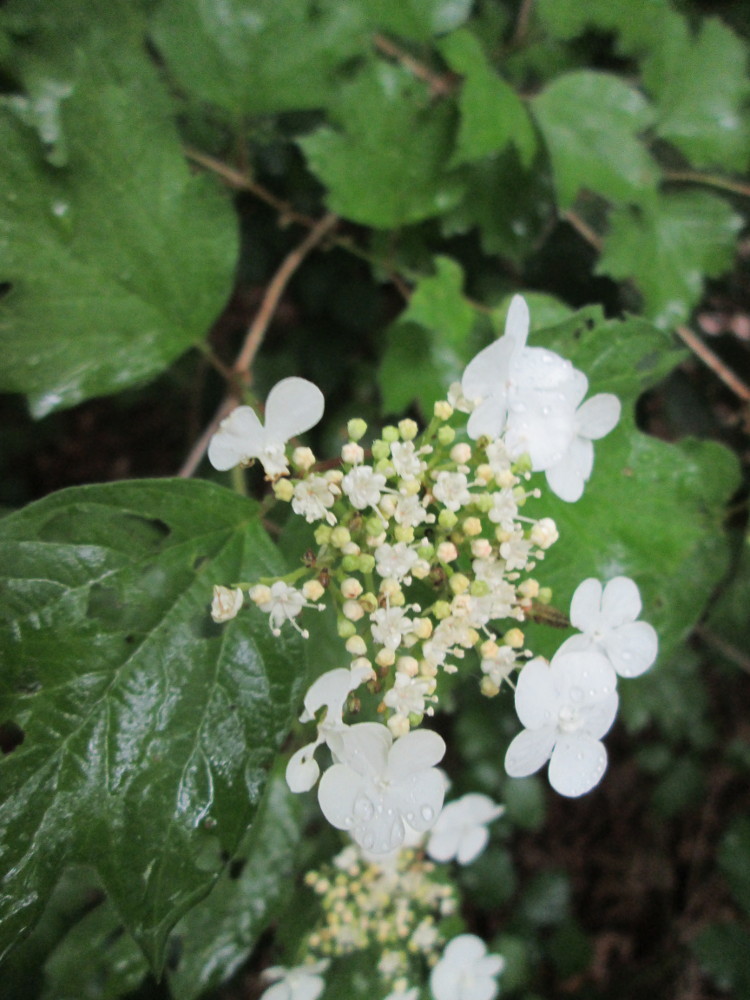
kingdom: Plantae
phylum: Tracheophyta
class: Magnoliopsida
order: Dipsacales
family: Viburnaceae
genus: Viburnum
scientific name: Viburnum opulus
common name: Guelder-rose
